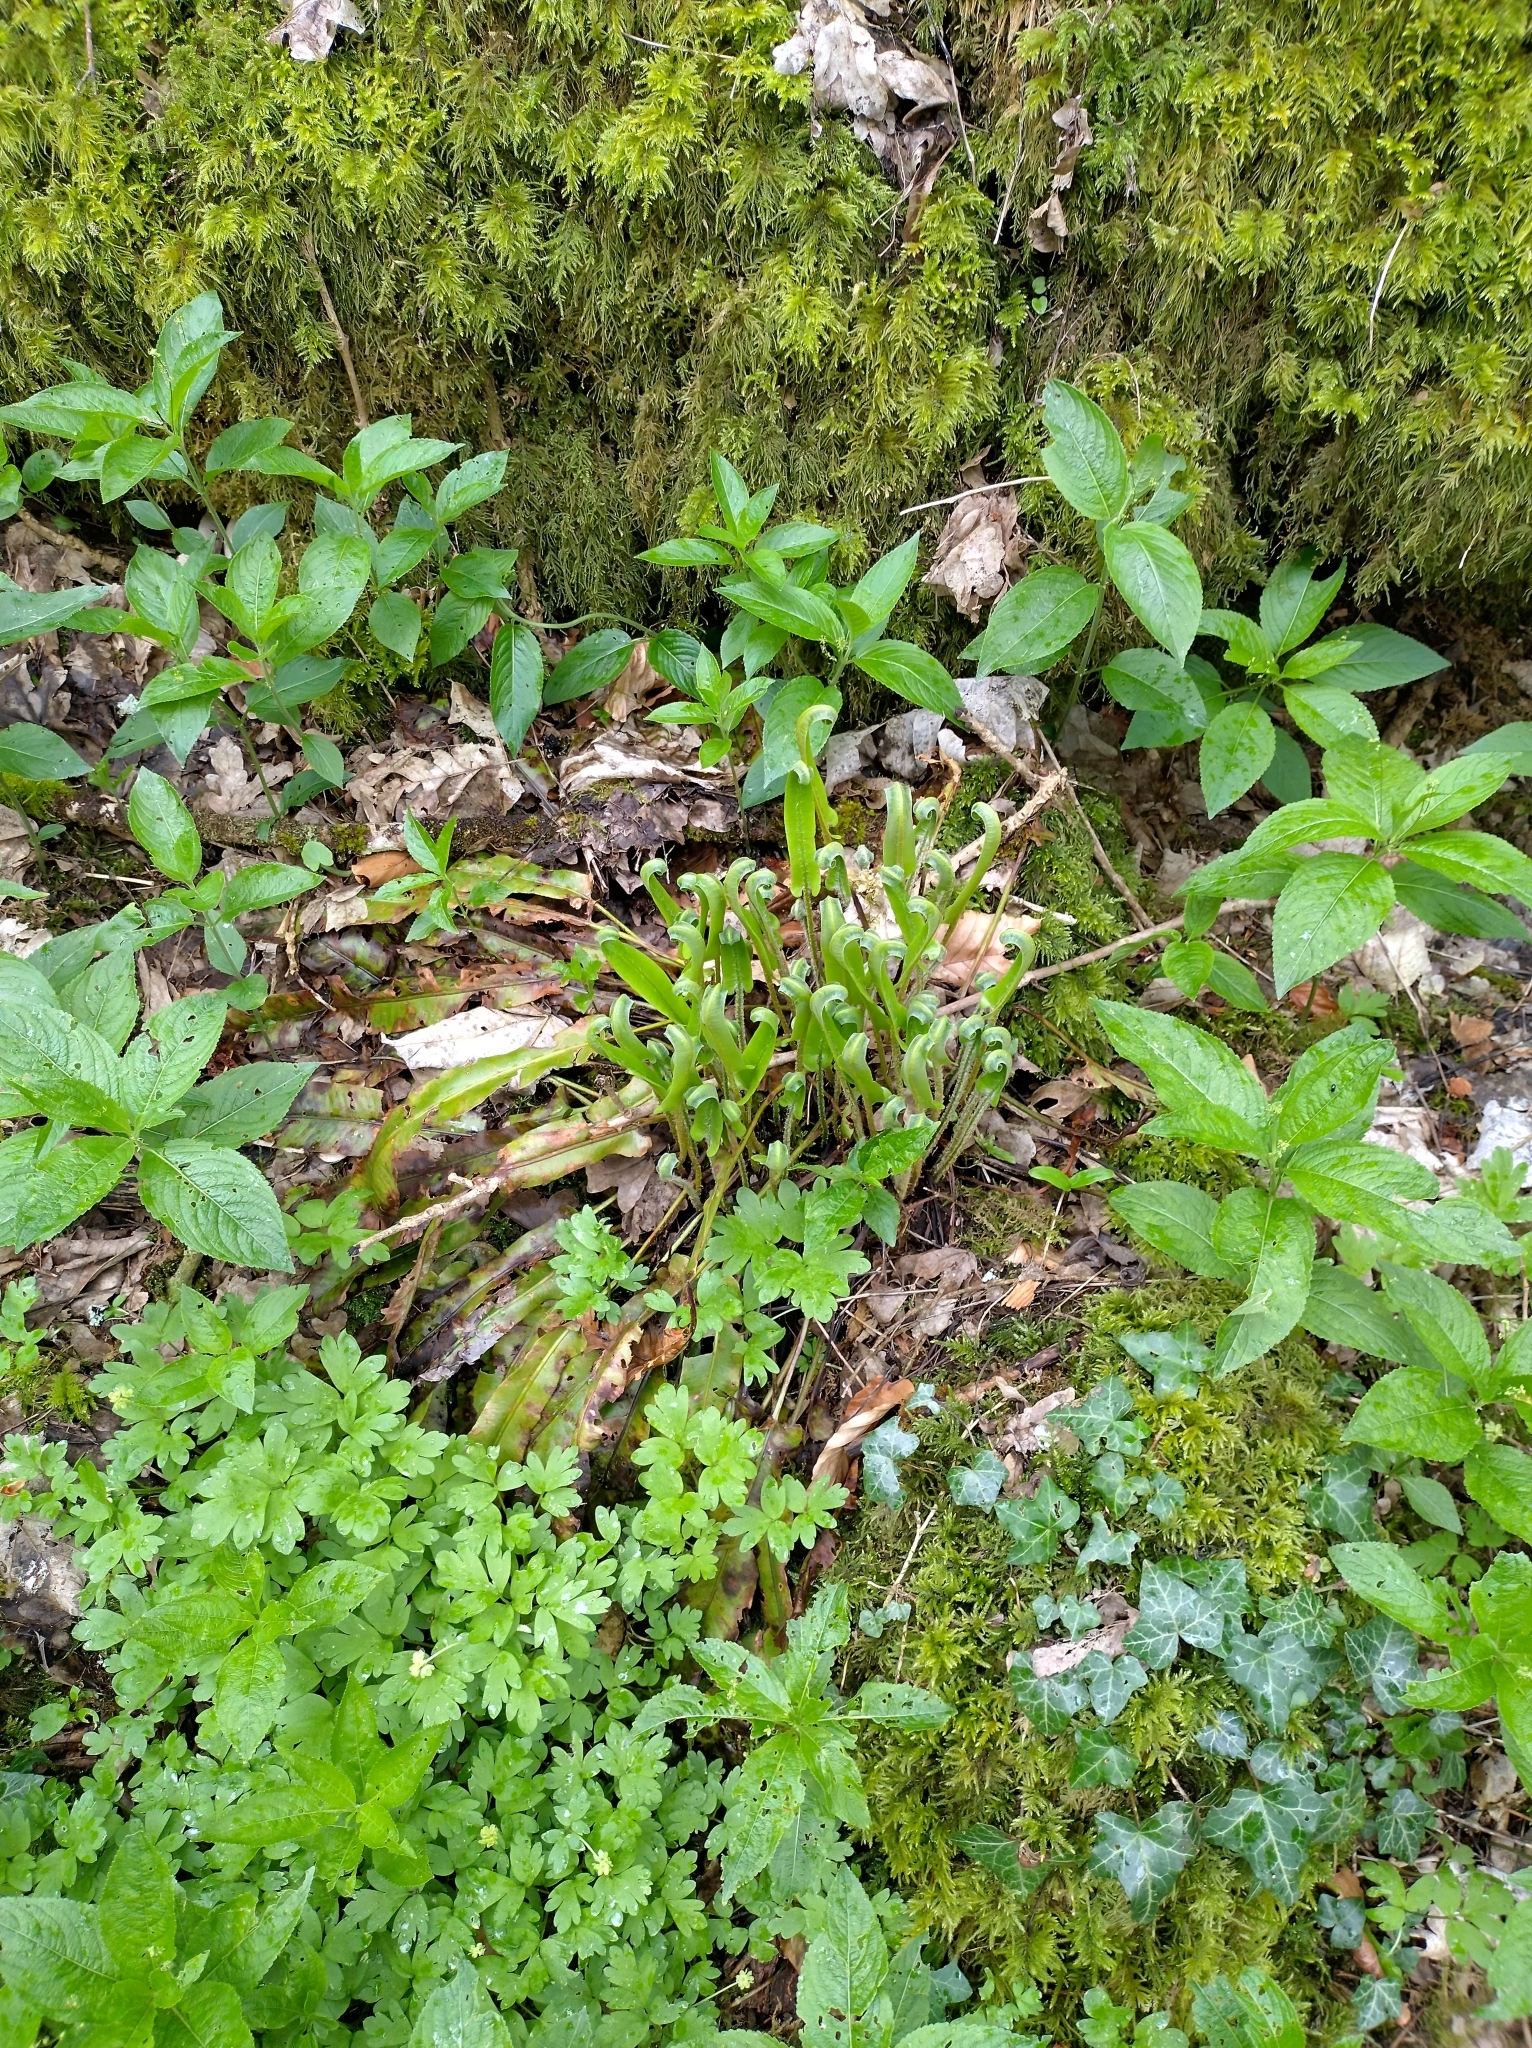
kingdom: Plantae
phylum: Tracheophyta
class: Polypodiopsida
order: Polypodiales
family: Aspleniaceae
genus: Asplenium
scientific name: Asplenium scolopendrium
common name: Hart's-tongue fern
